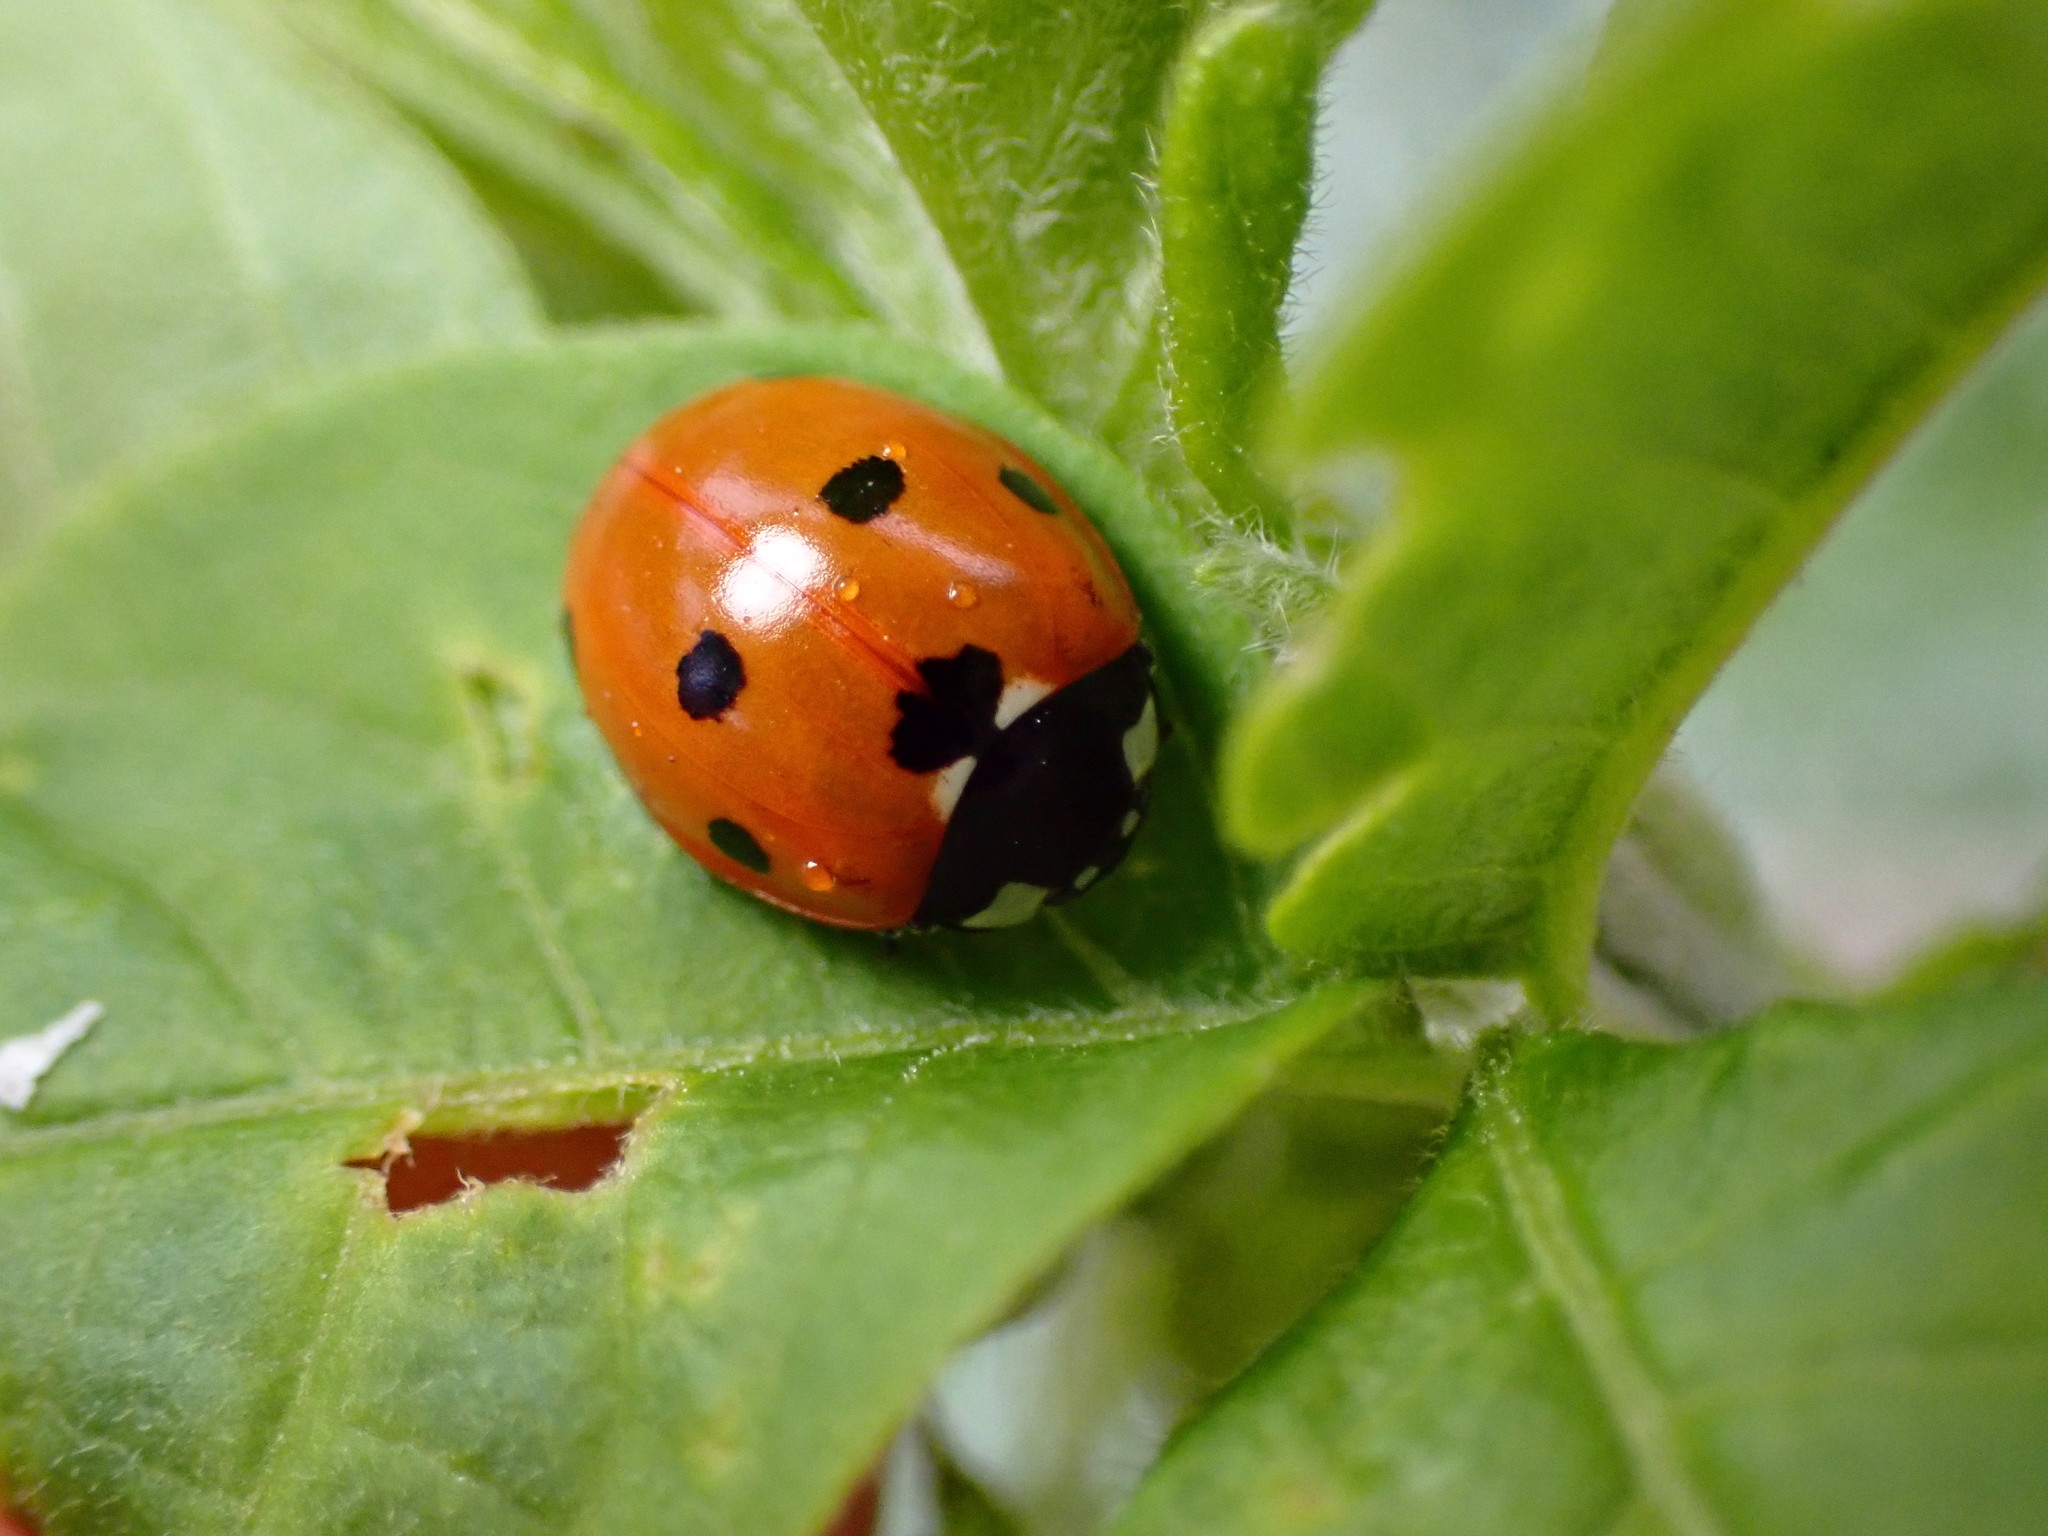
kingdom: Animalia
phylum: Arthropoda
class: Insecta
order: Coleoptera
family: Coccinellidae
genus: Coccinella
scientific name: Coccinella septempunctata
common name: Sevenspotted lady beetle
